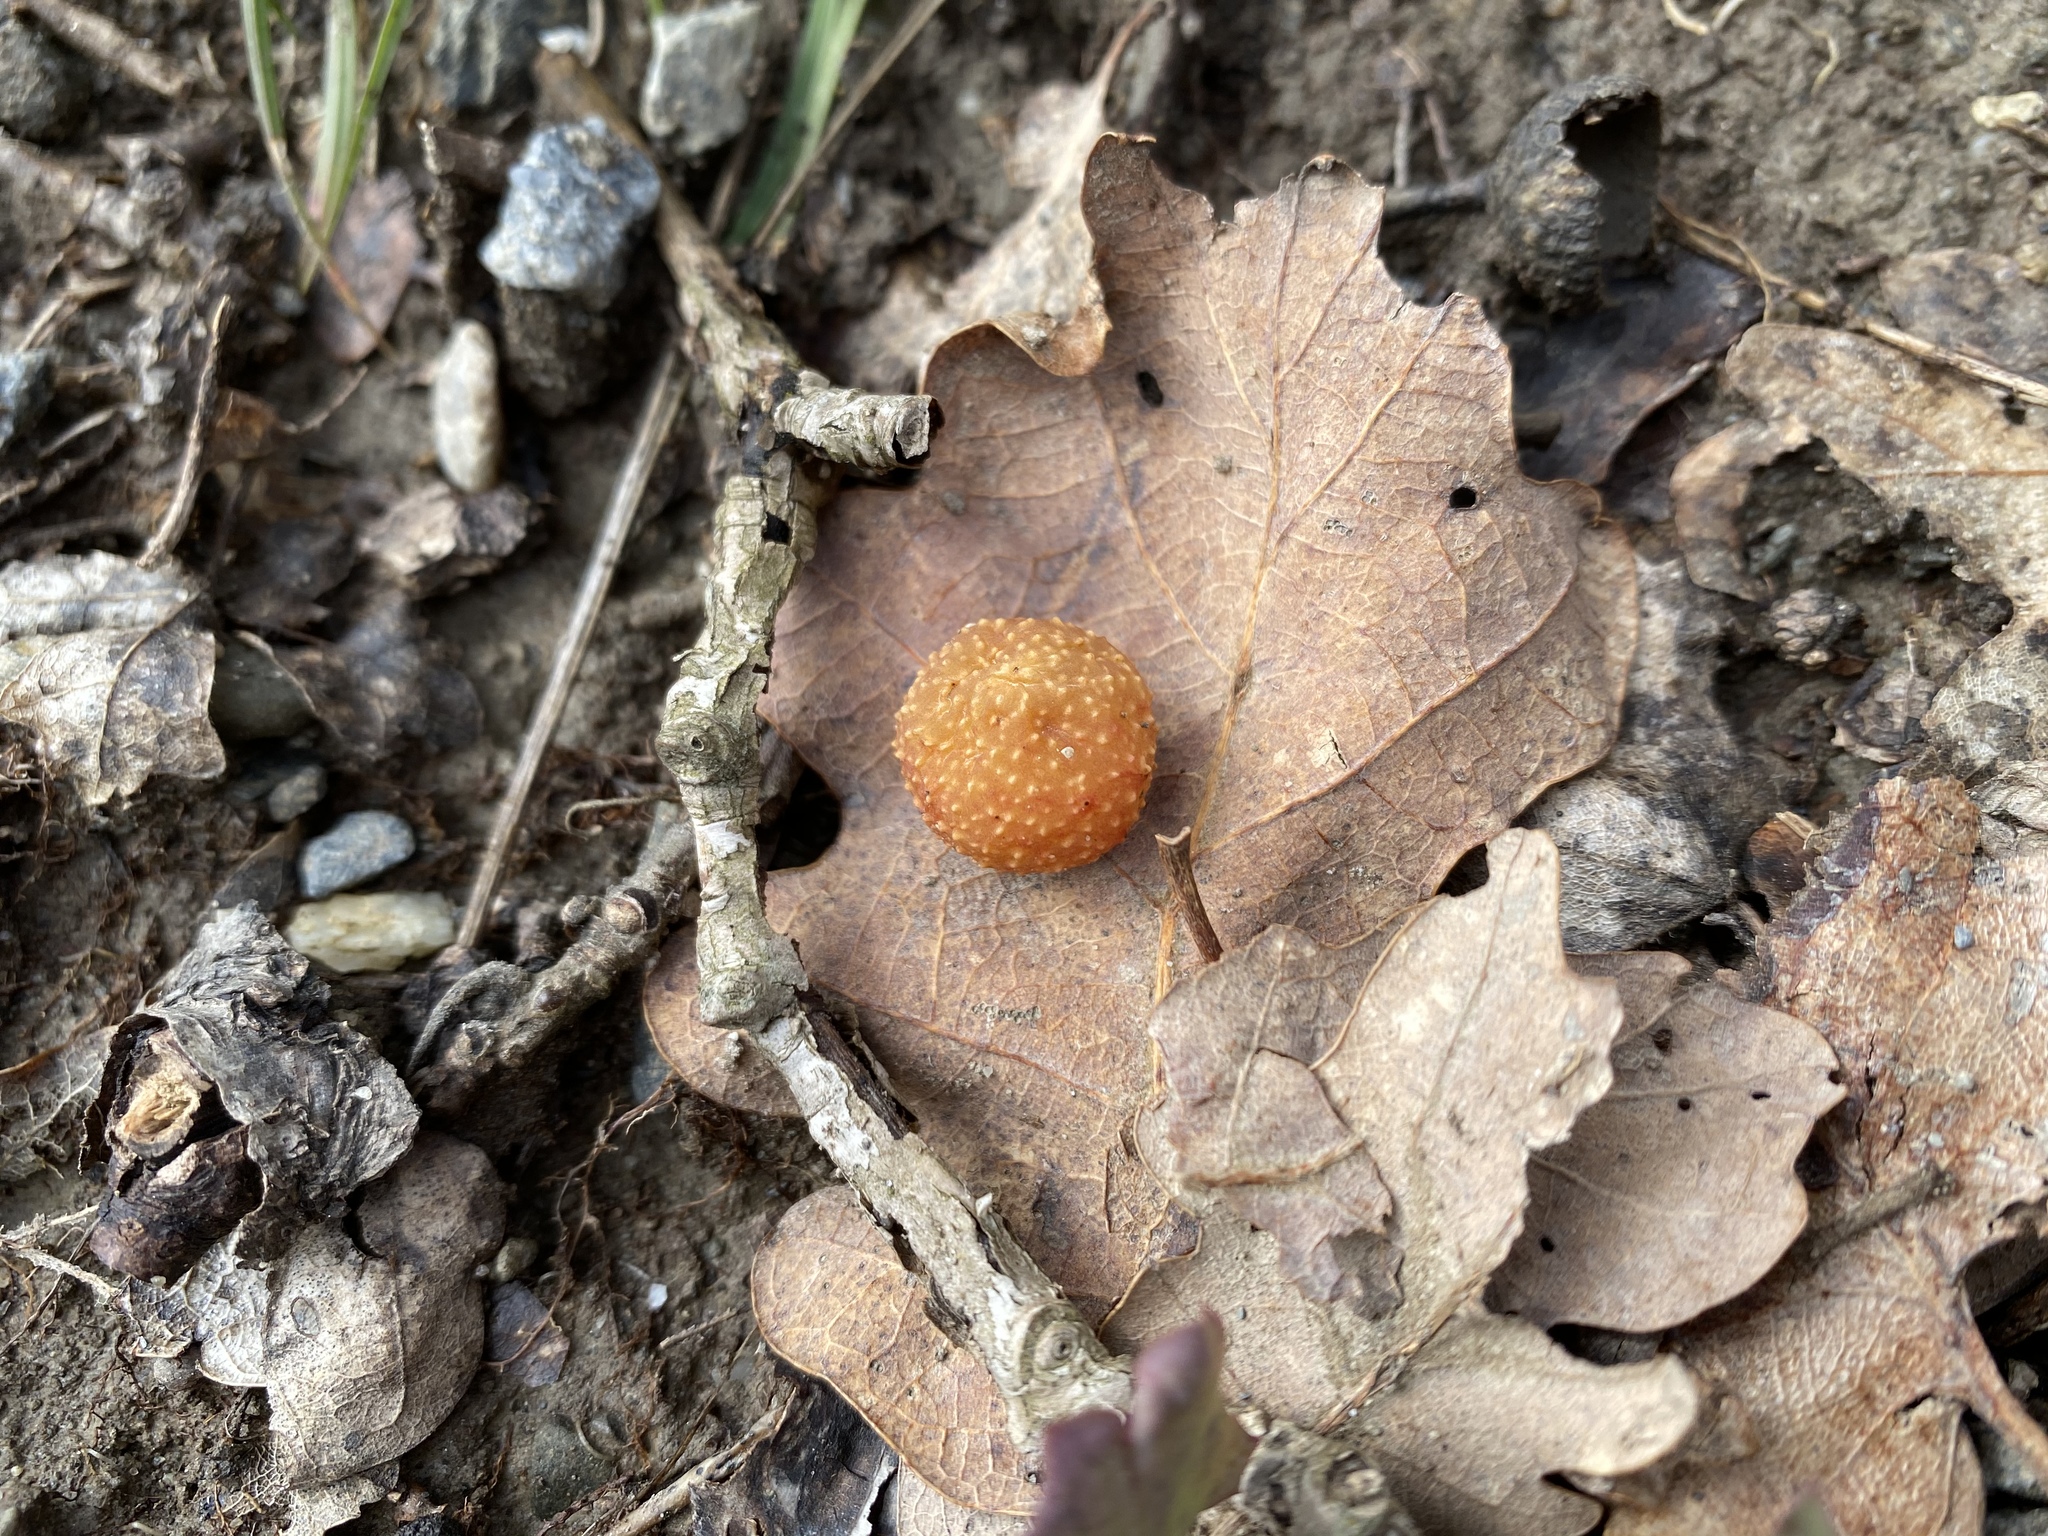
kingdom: Animalia
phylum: Arthropoda
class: Insecta
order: Hymenoptera
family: Cynipidae
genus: Cynips
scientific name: Cynips quercusfolii
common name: Cherry gall
